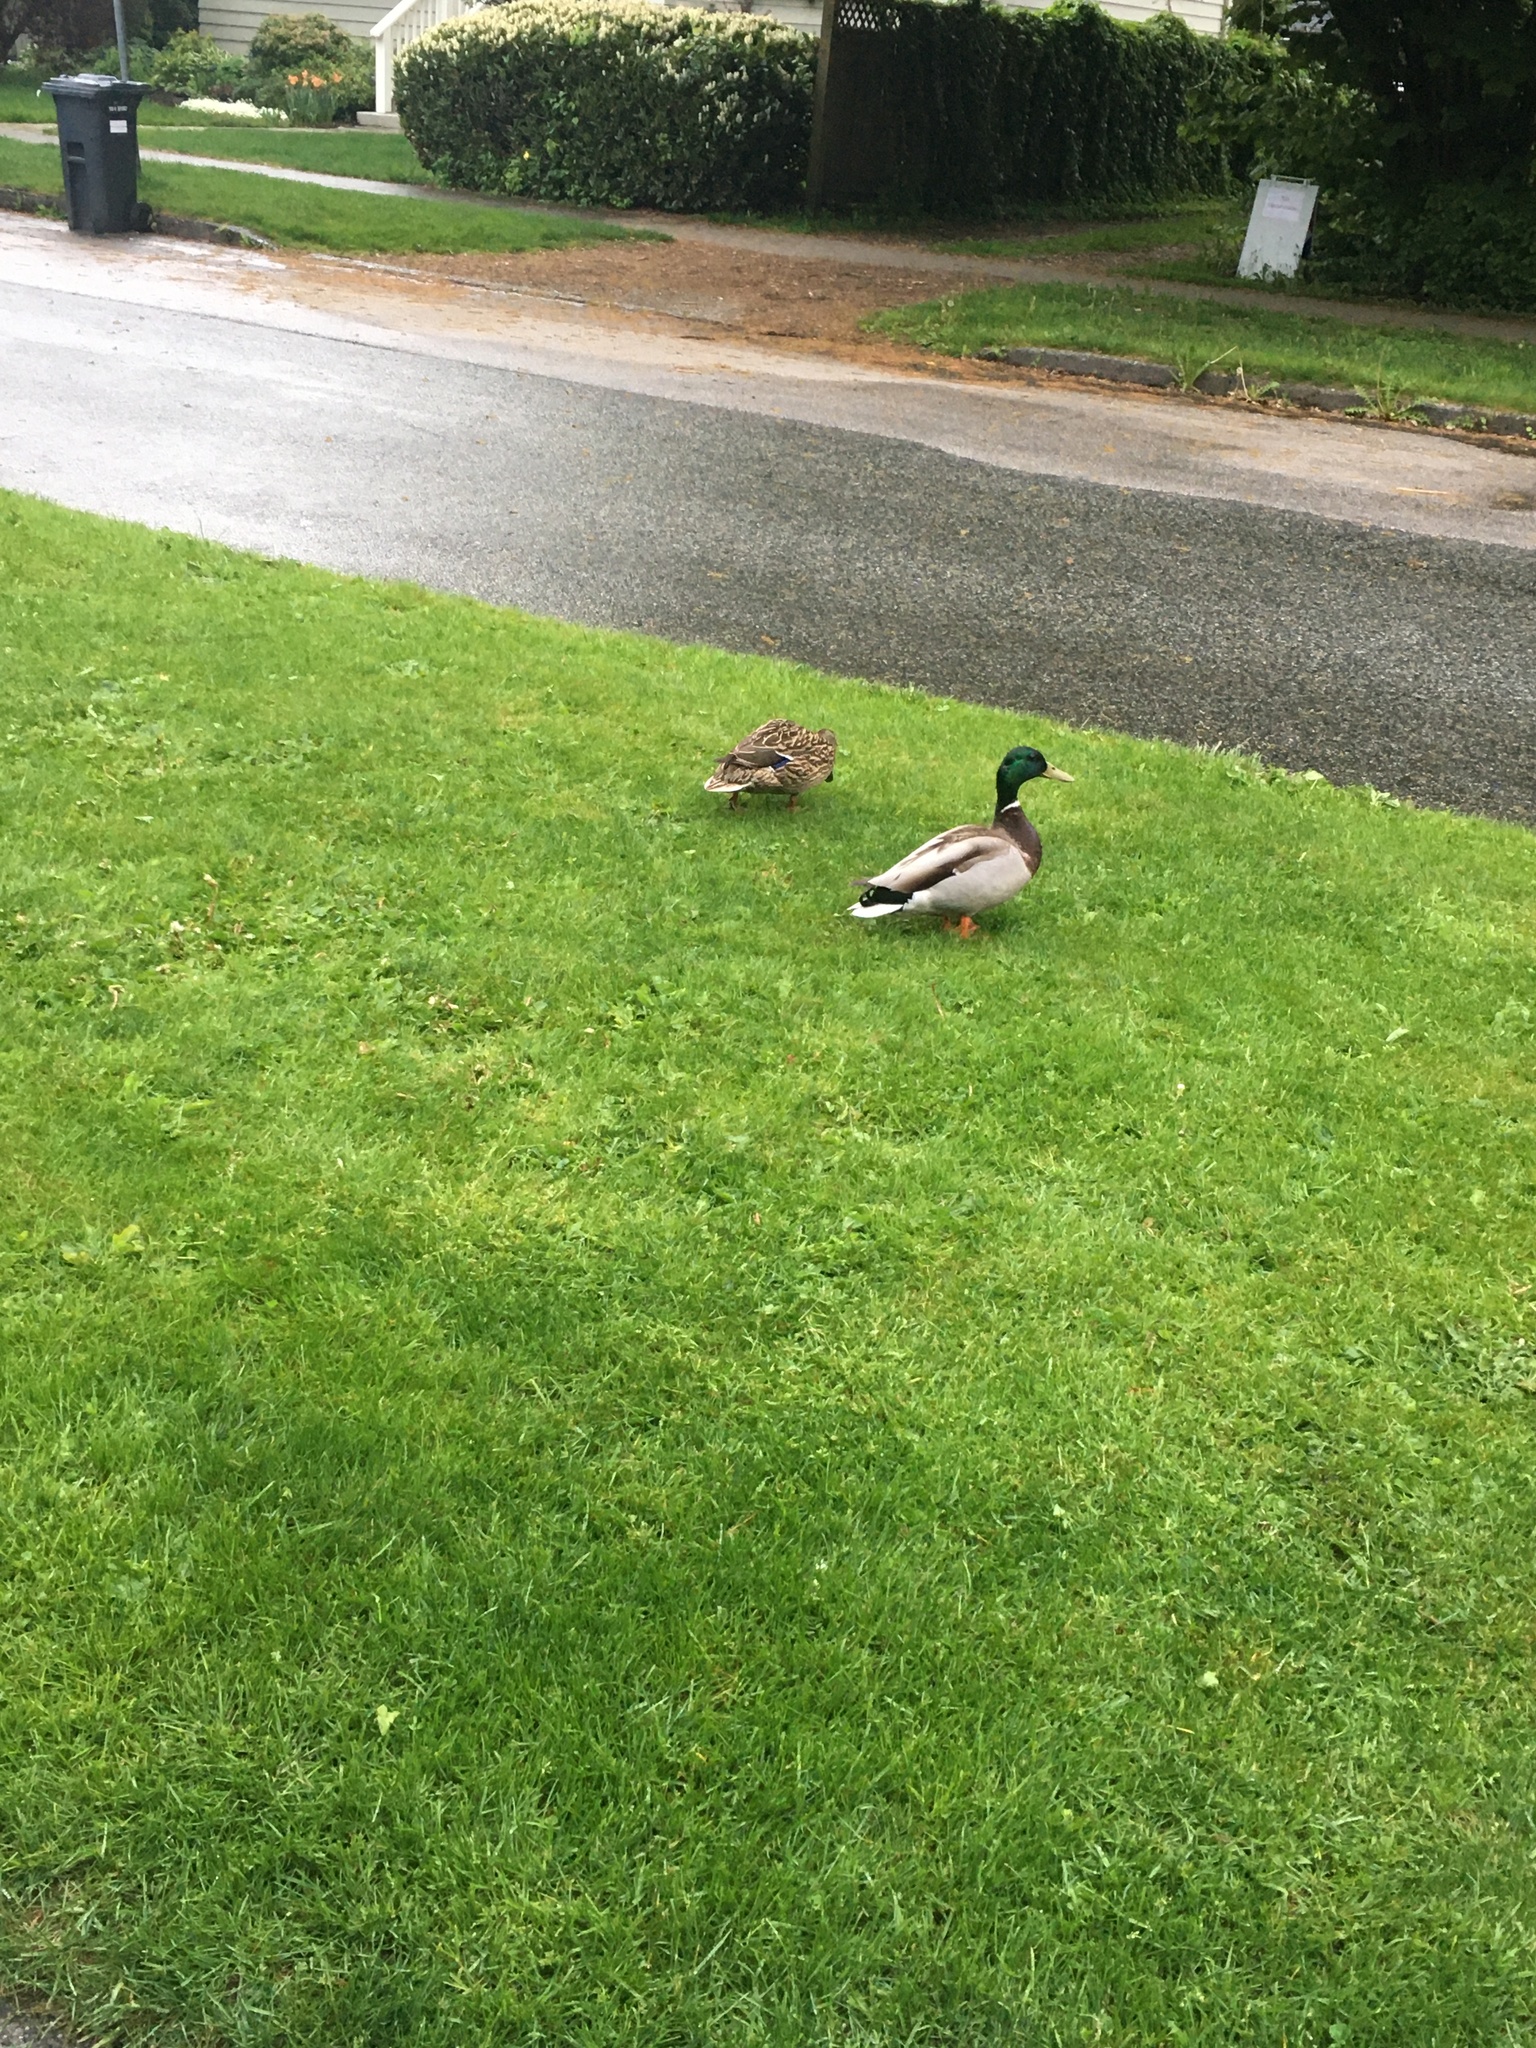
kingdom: Animalia
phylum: Chordata
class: Aves
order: Anseriformes
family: Anatidae
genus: Anas
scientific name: Anas platyrhynchos
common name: Mallard
